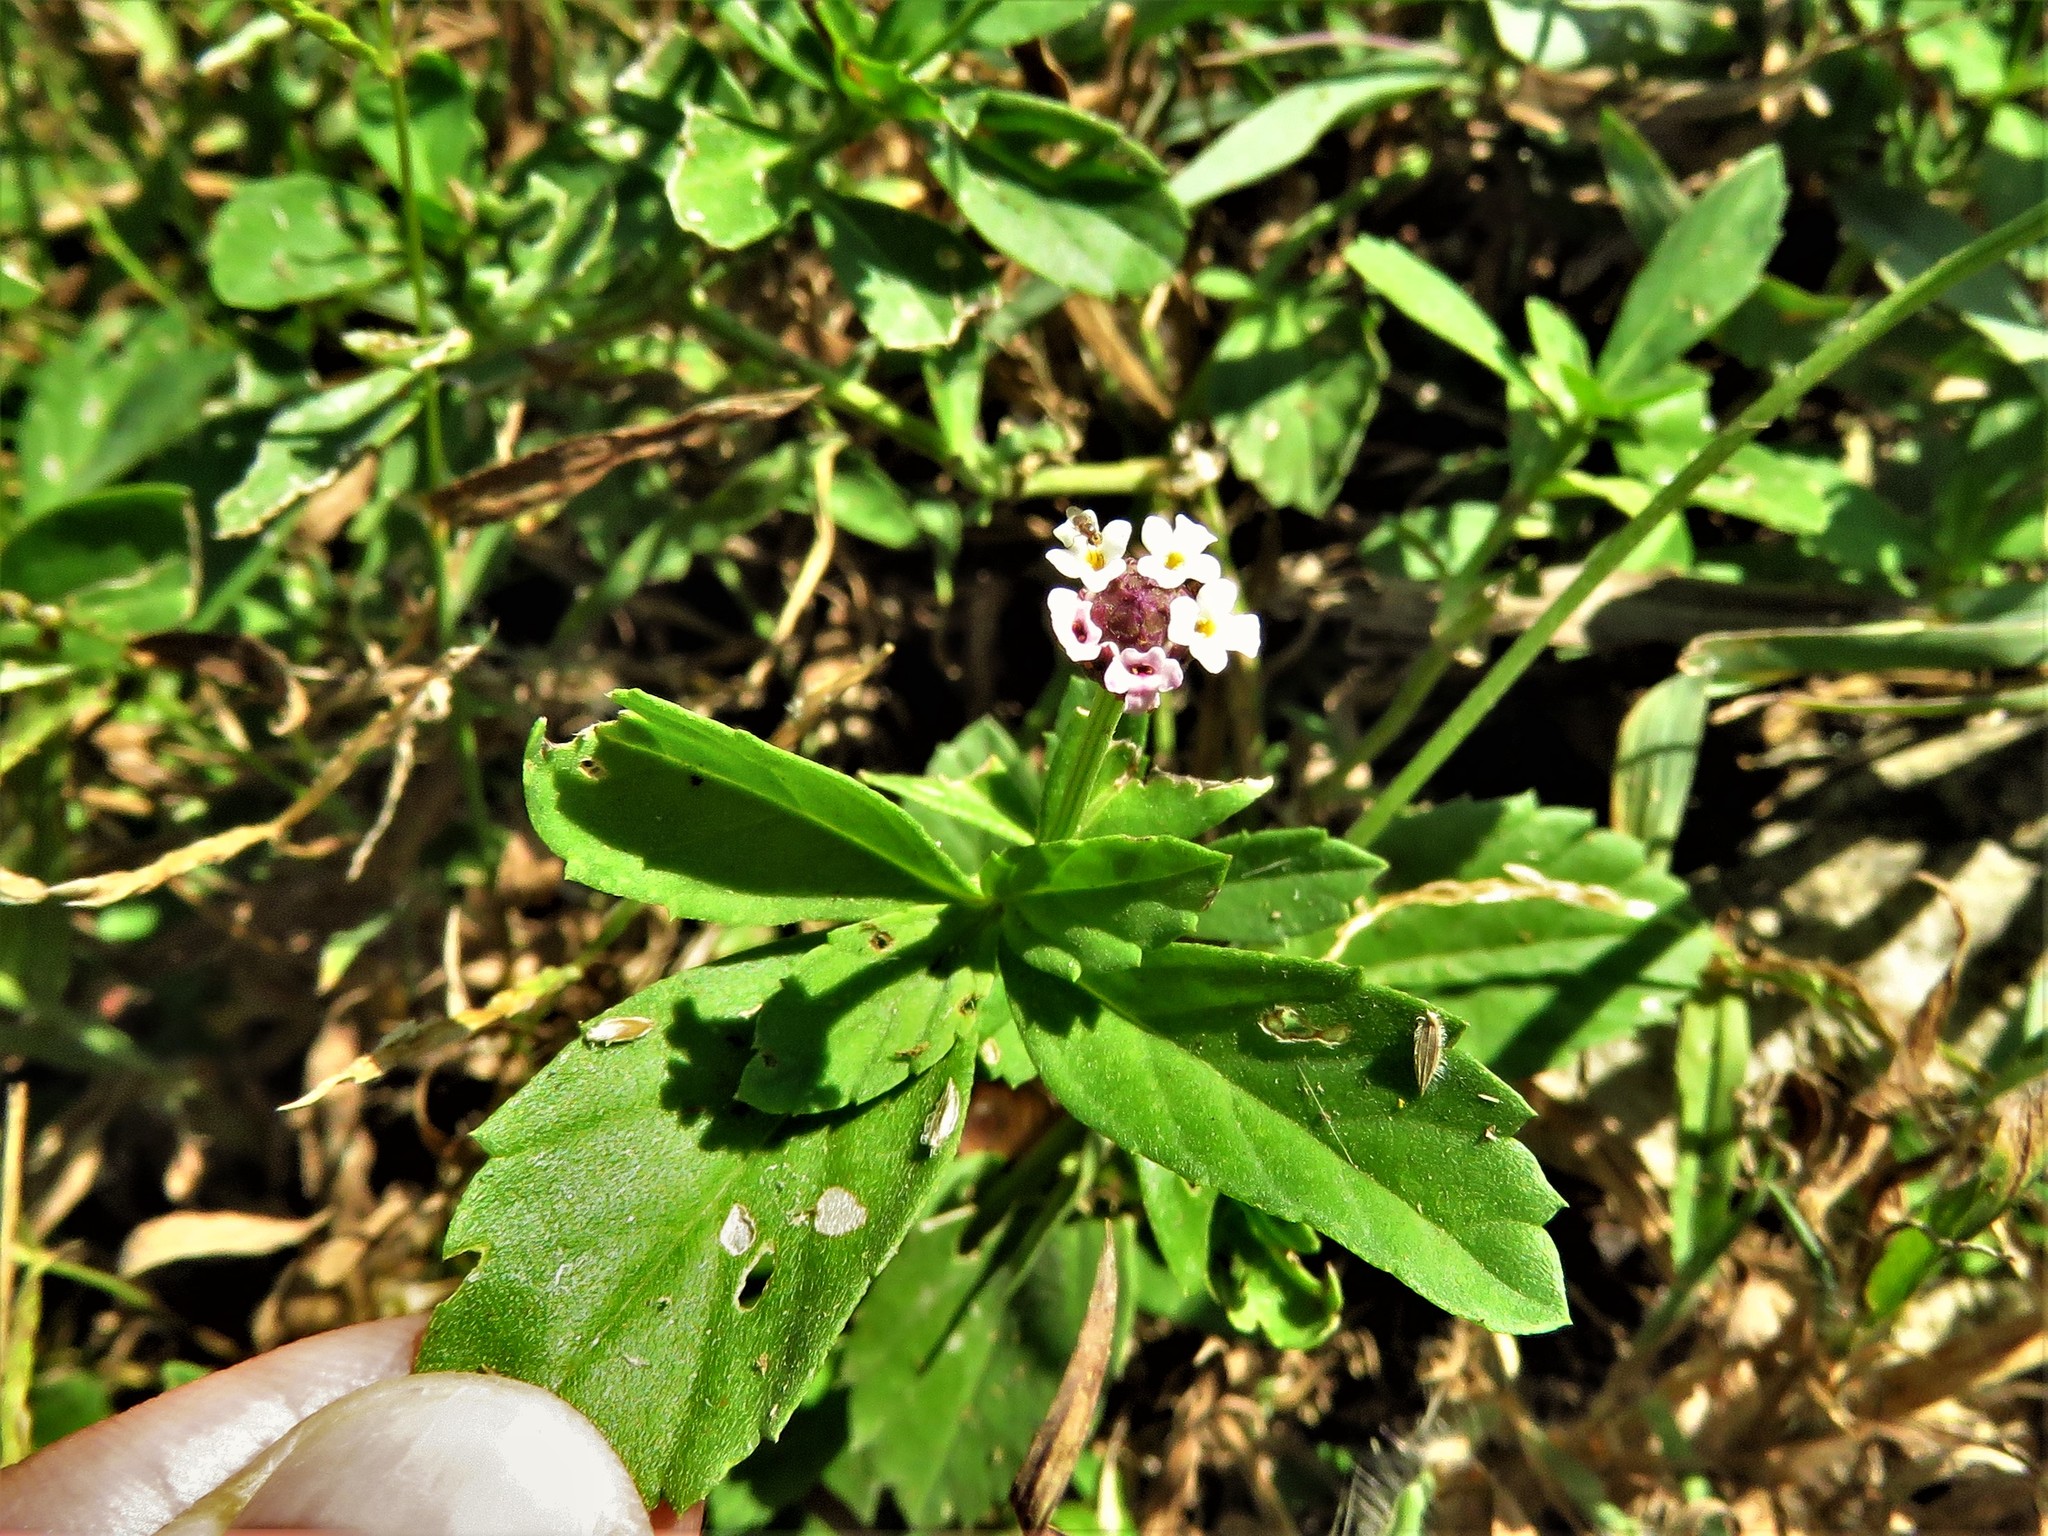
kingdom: Plantae
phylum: Tracheophyta
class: Magnoliopsida
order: Lamiales
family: Verbenaceae
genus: Phyla
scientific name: Phyla lanceolata
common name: Northern fogfruit
